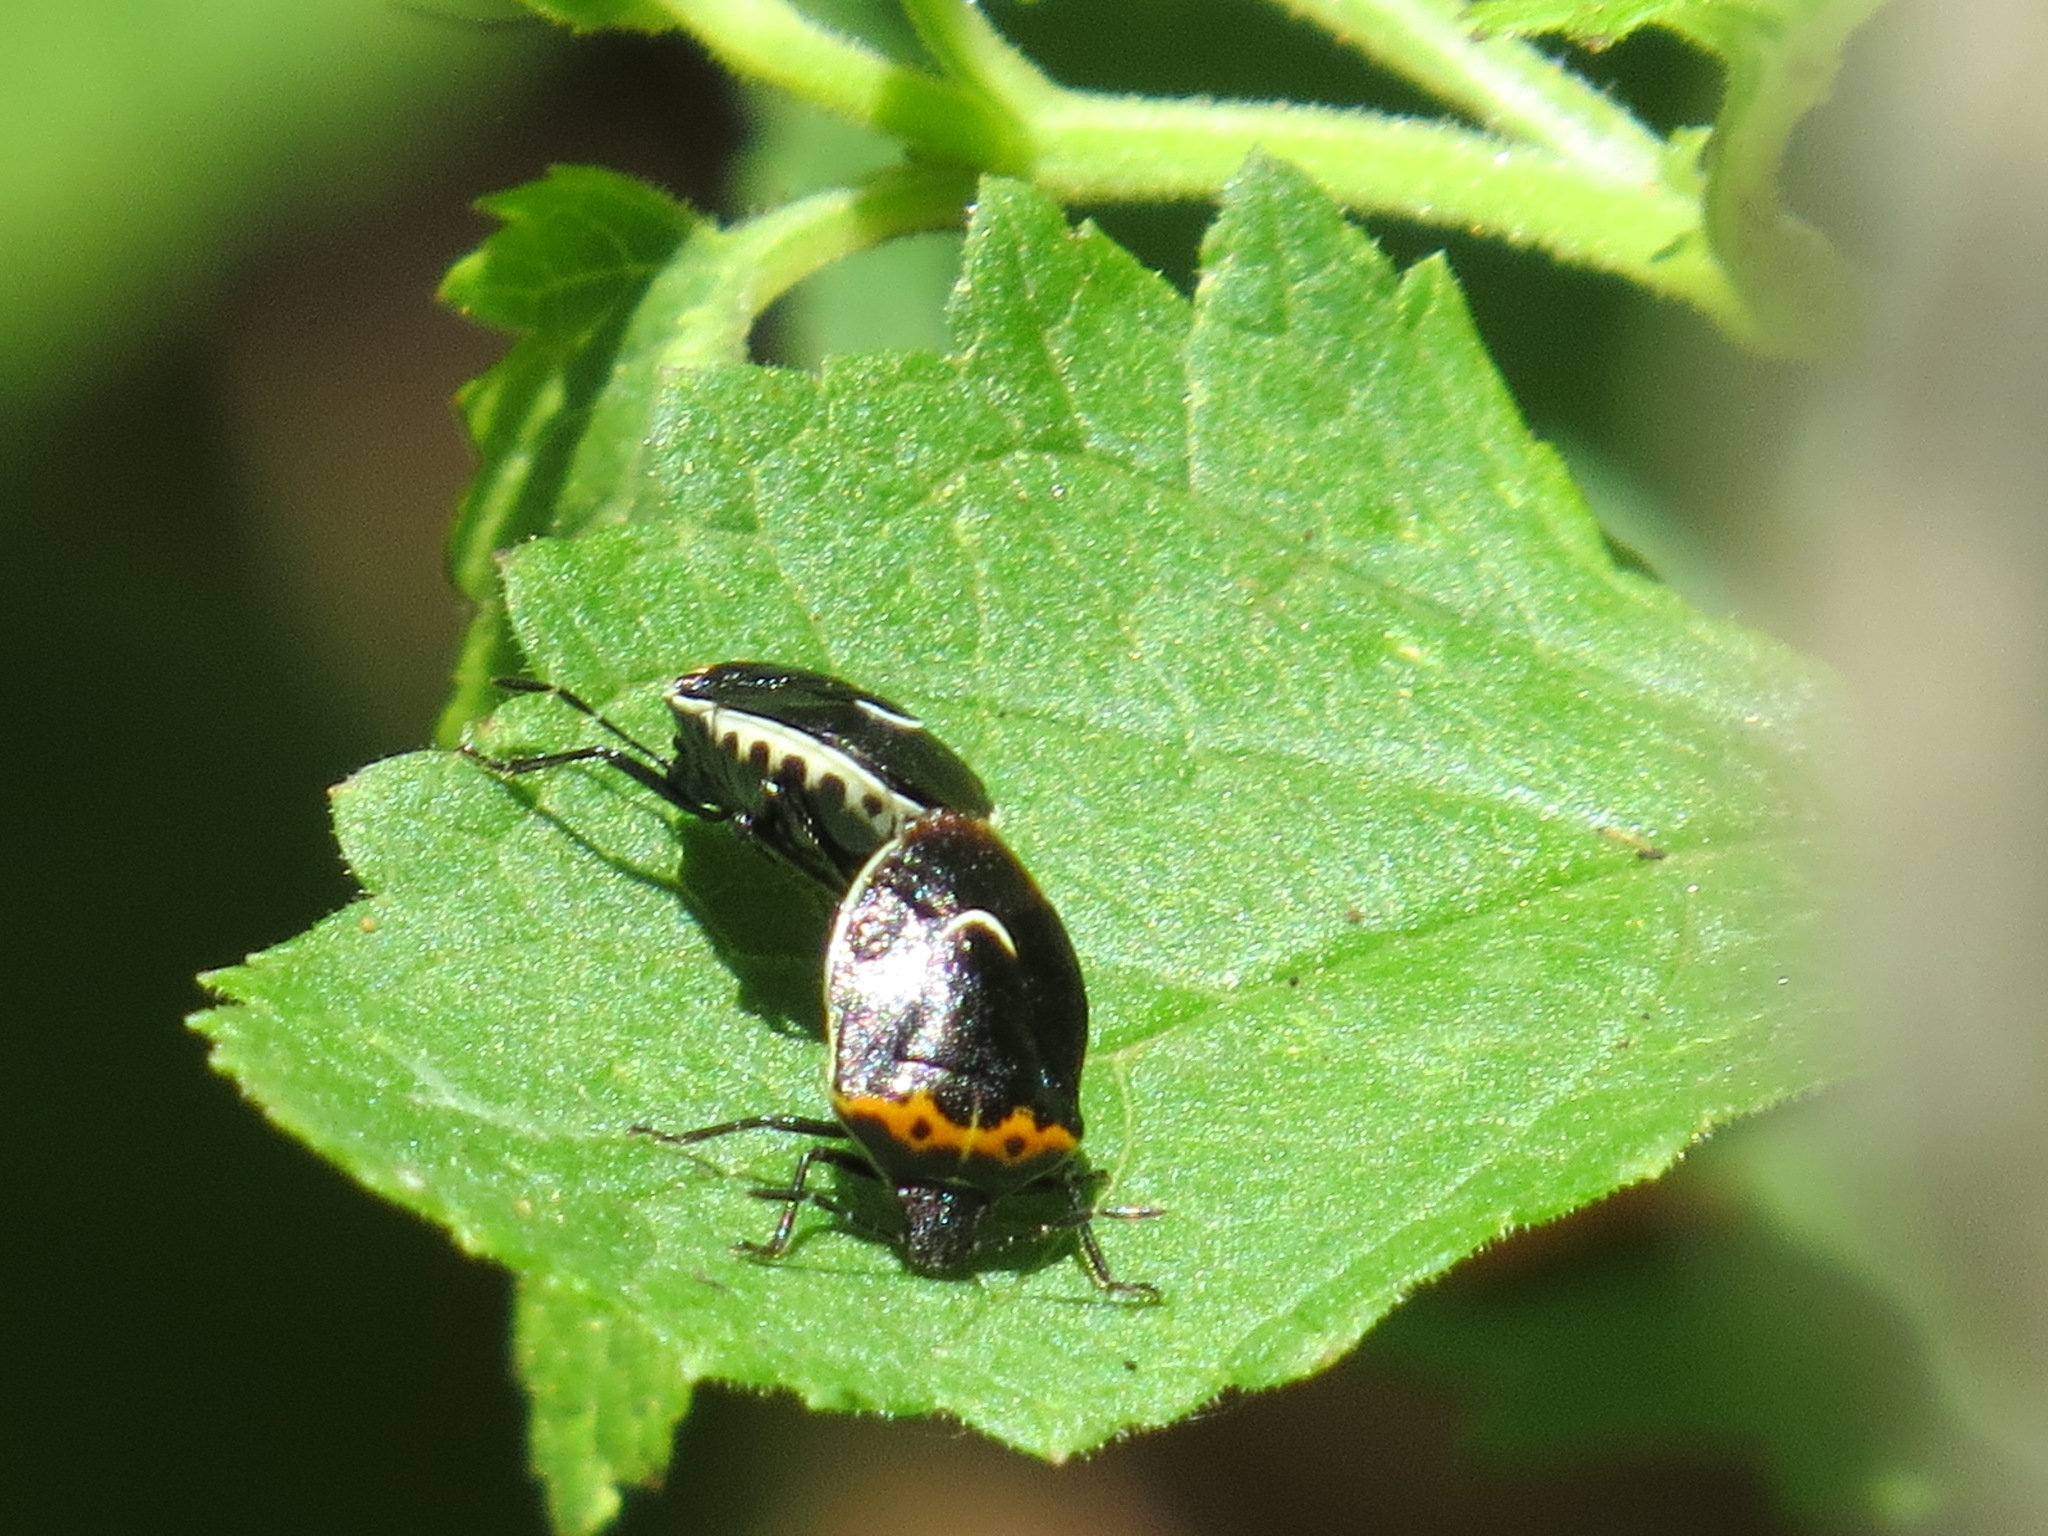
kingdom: Animalia
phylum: Arthropoda
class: Insecta
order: Hemiptera
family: Pentatomidae
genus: Cosmopepla
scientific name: Cosmopepla conspicillaris
